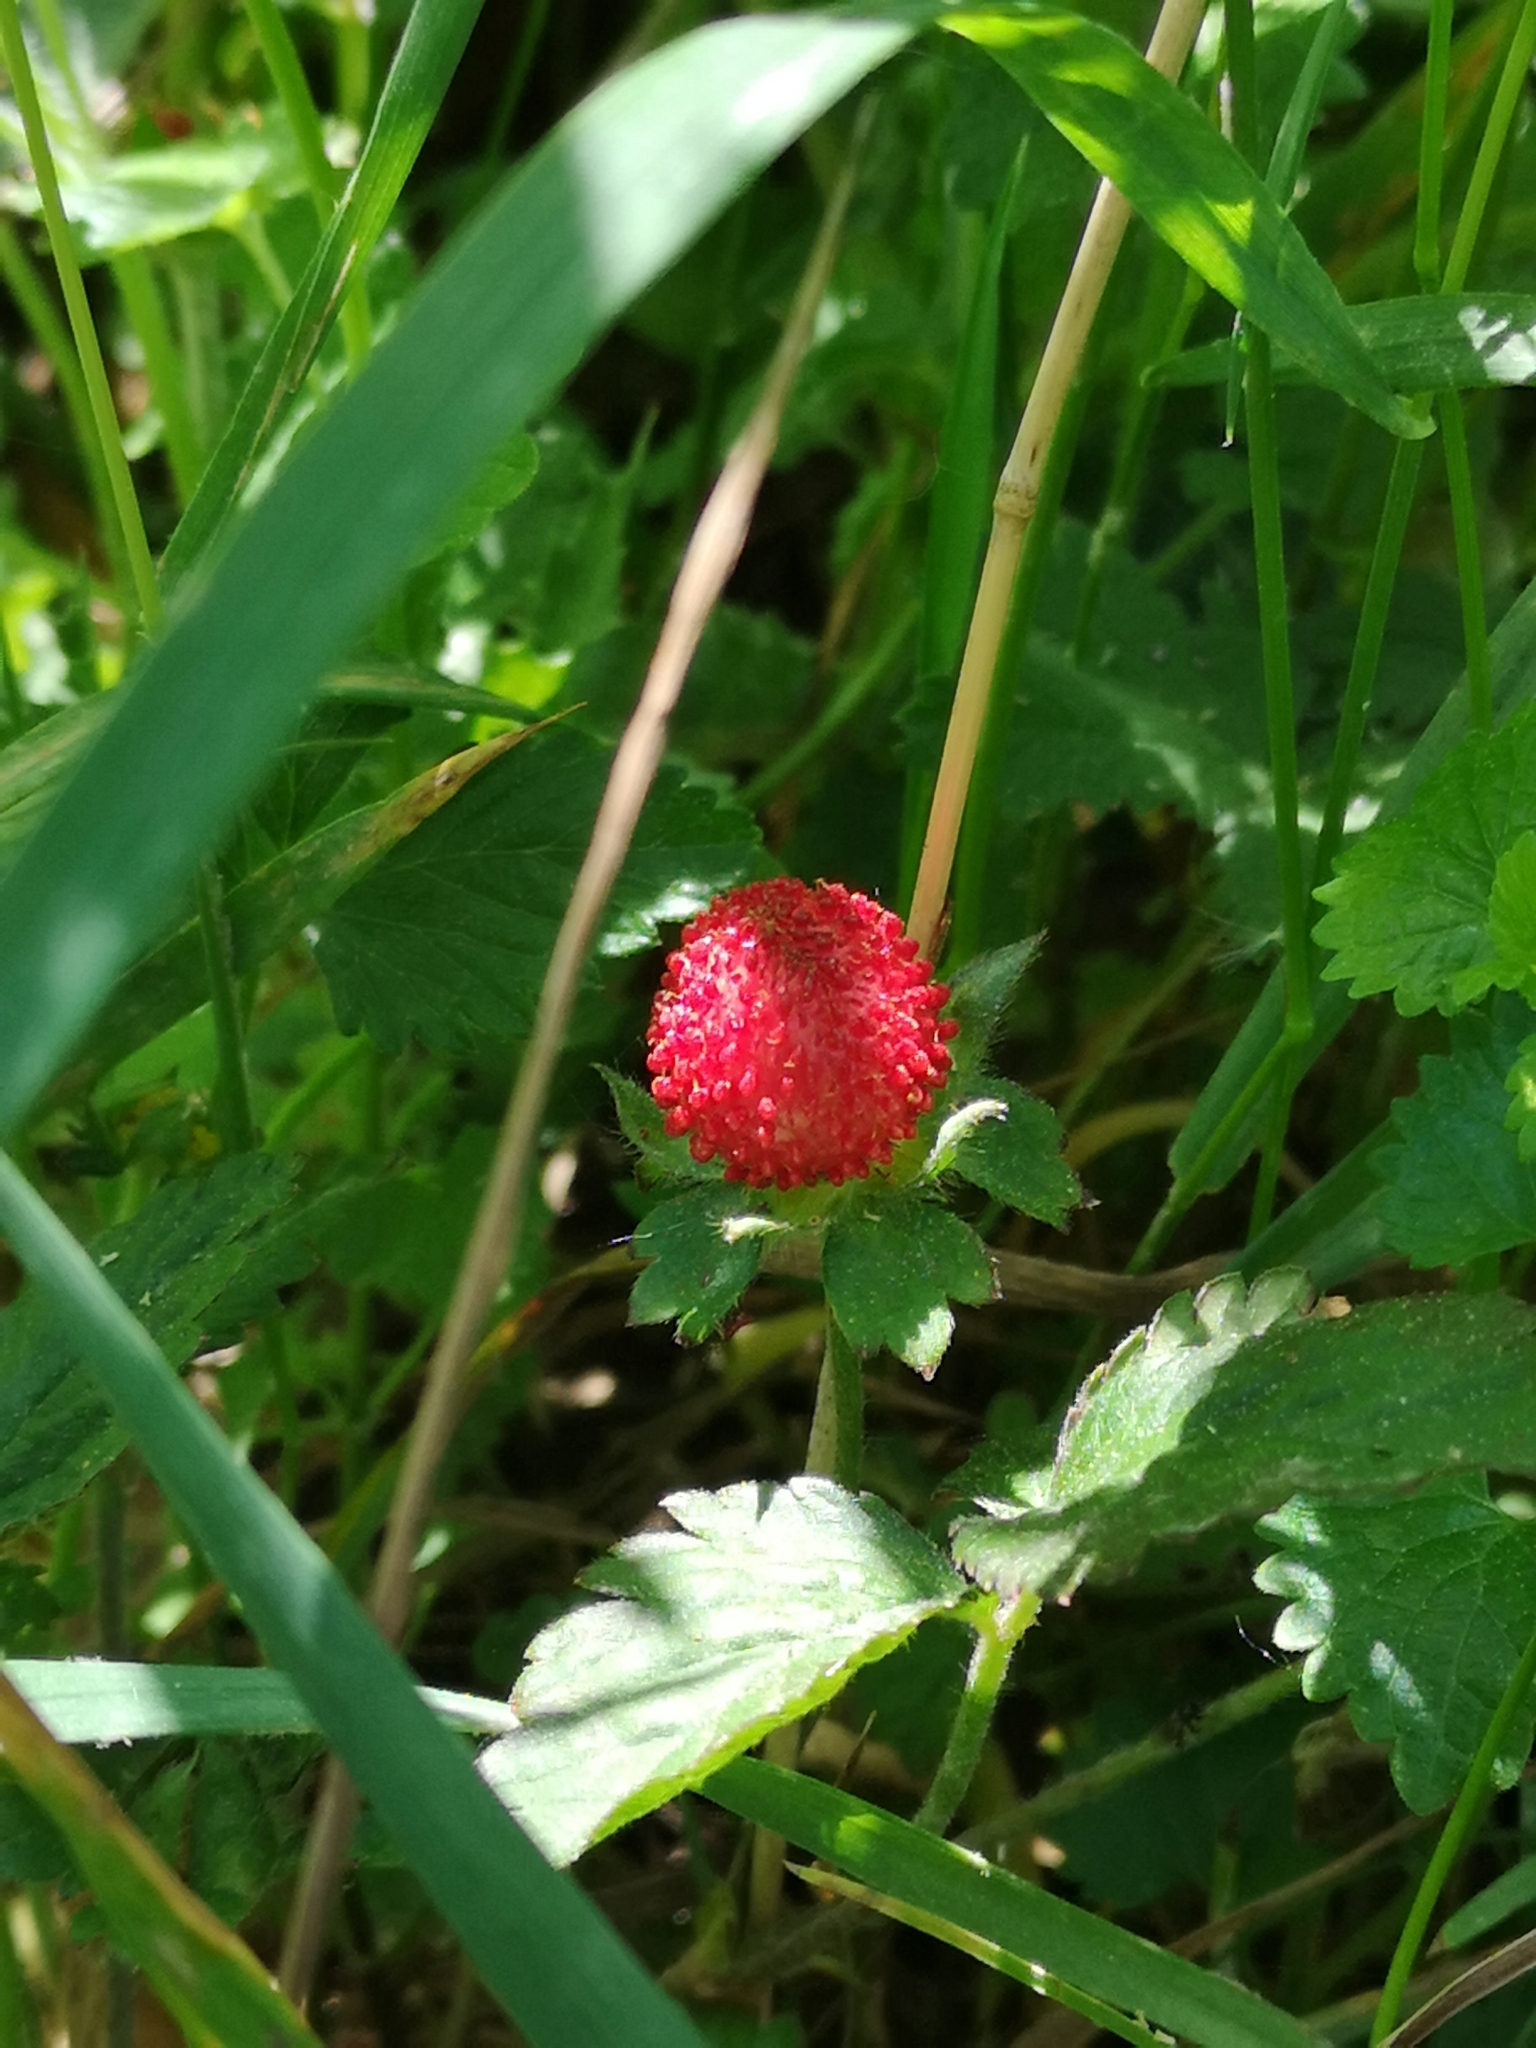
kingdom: Plantae
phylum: Tracheophyta
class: Magnoliopsida
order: Rosales
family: Rosaceae
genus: Potentilla
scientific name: Potentilla indica
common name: Yellow-flowered strawberry
